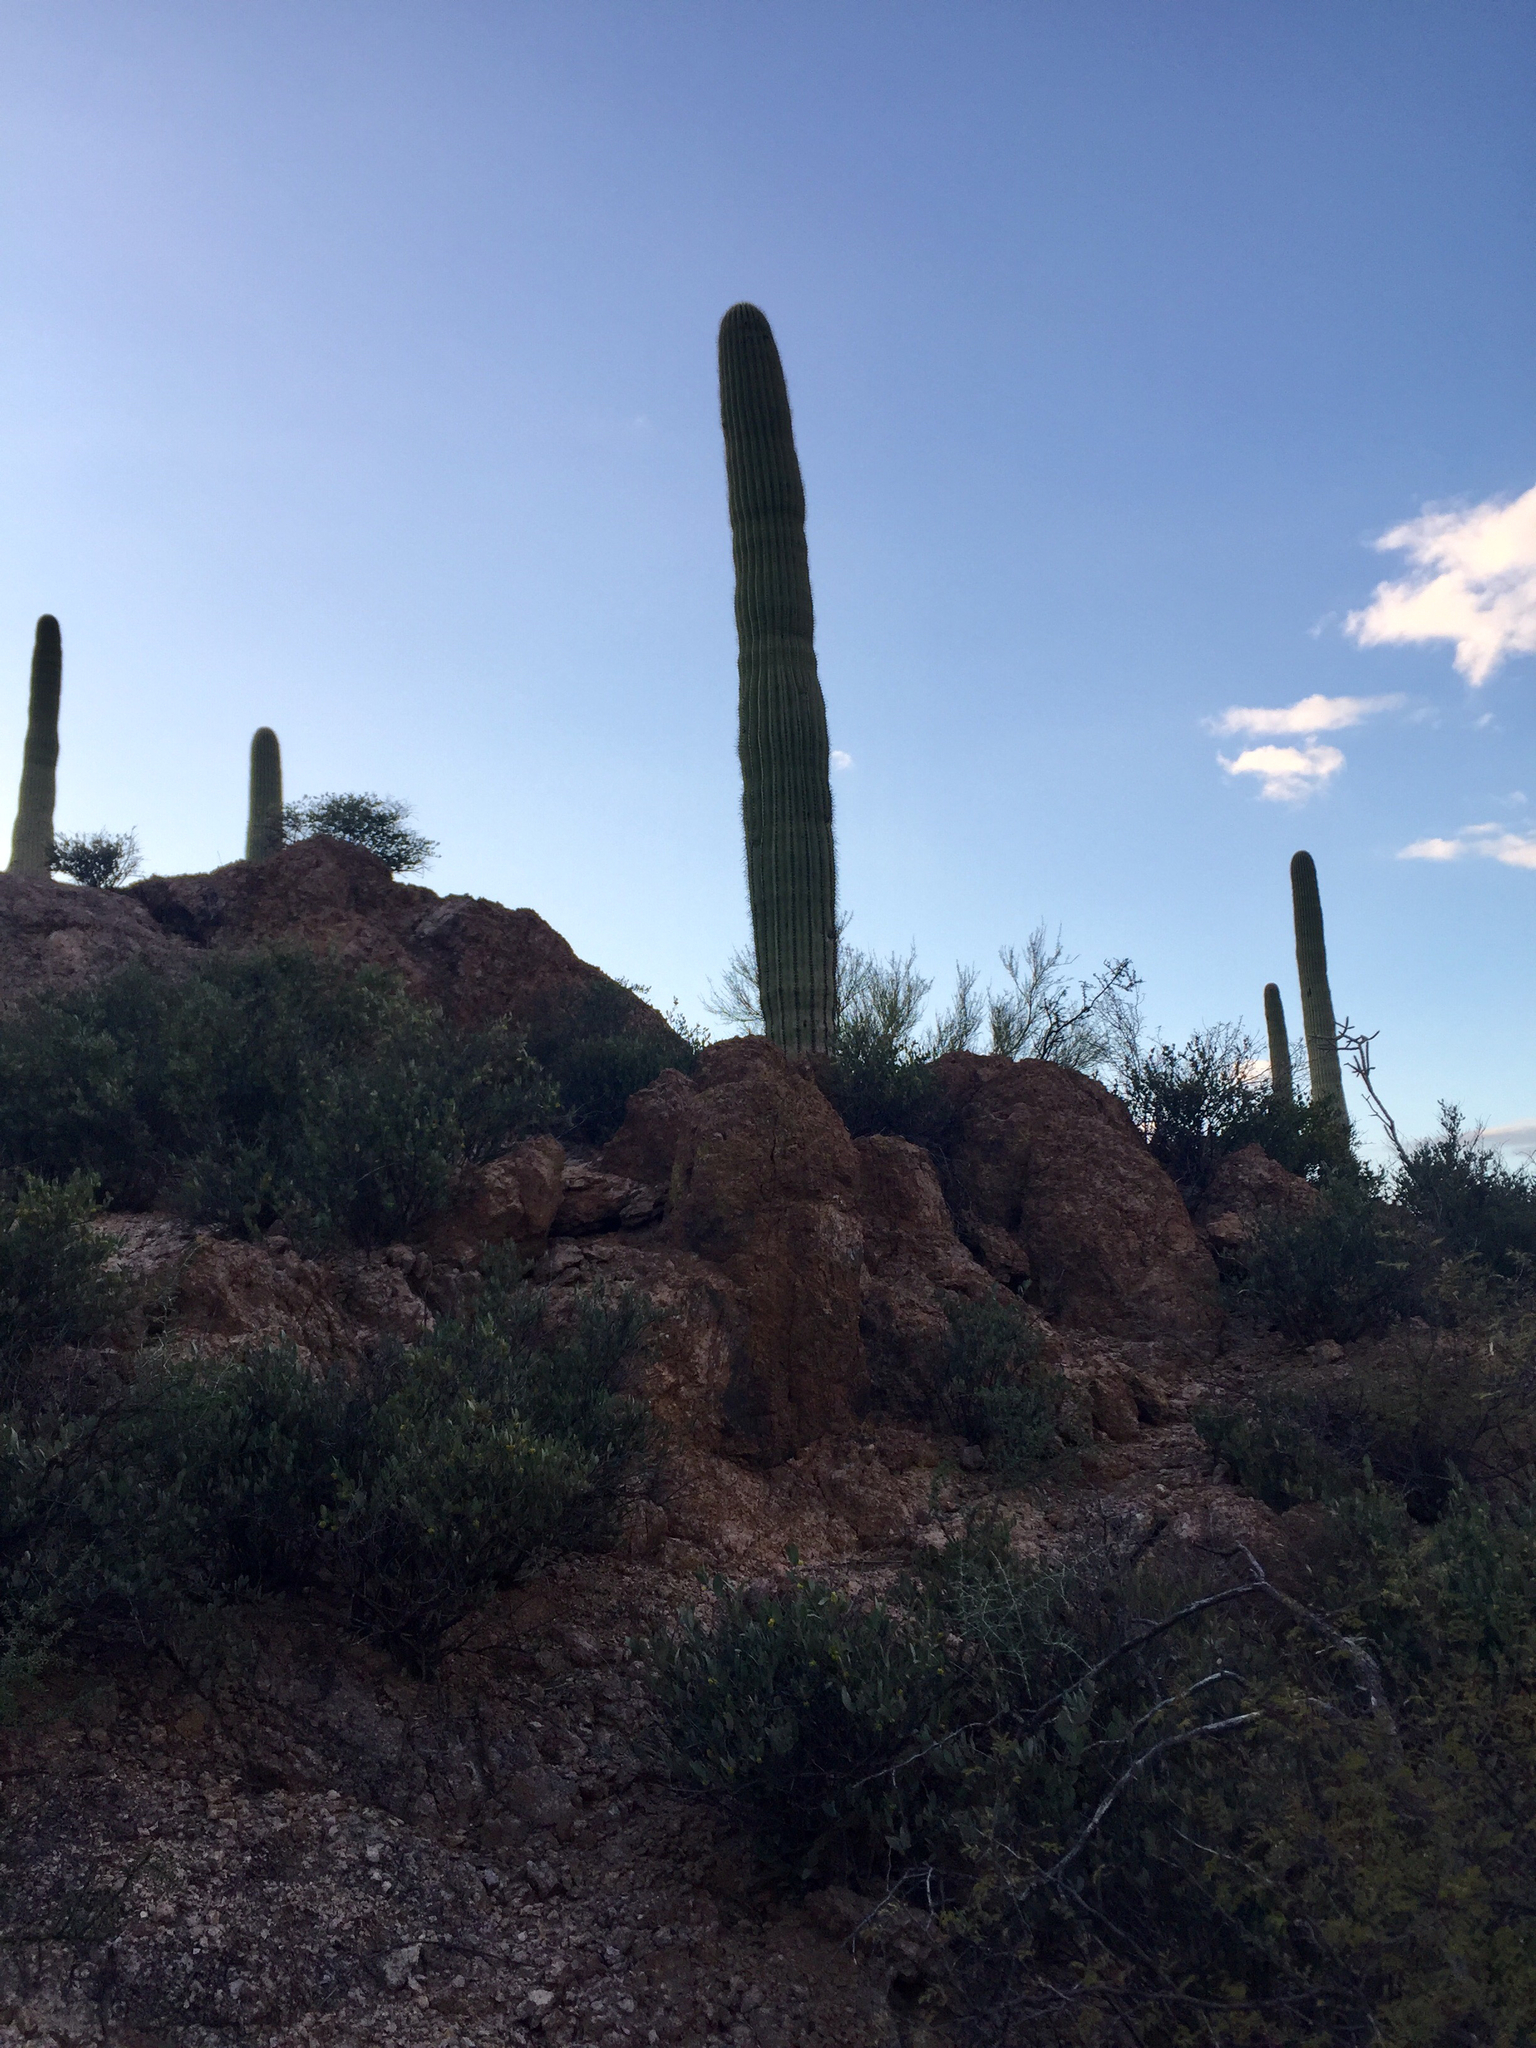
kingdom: Plantae
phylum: Tracheophyta
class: Magnoliopsida
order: Caryophyllales
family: Cactaceae
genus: Carnegiea
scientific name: Carnegiea gigantea
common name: Saguaro
